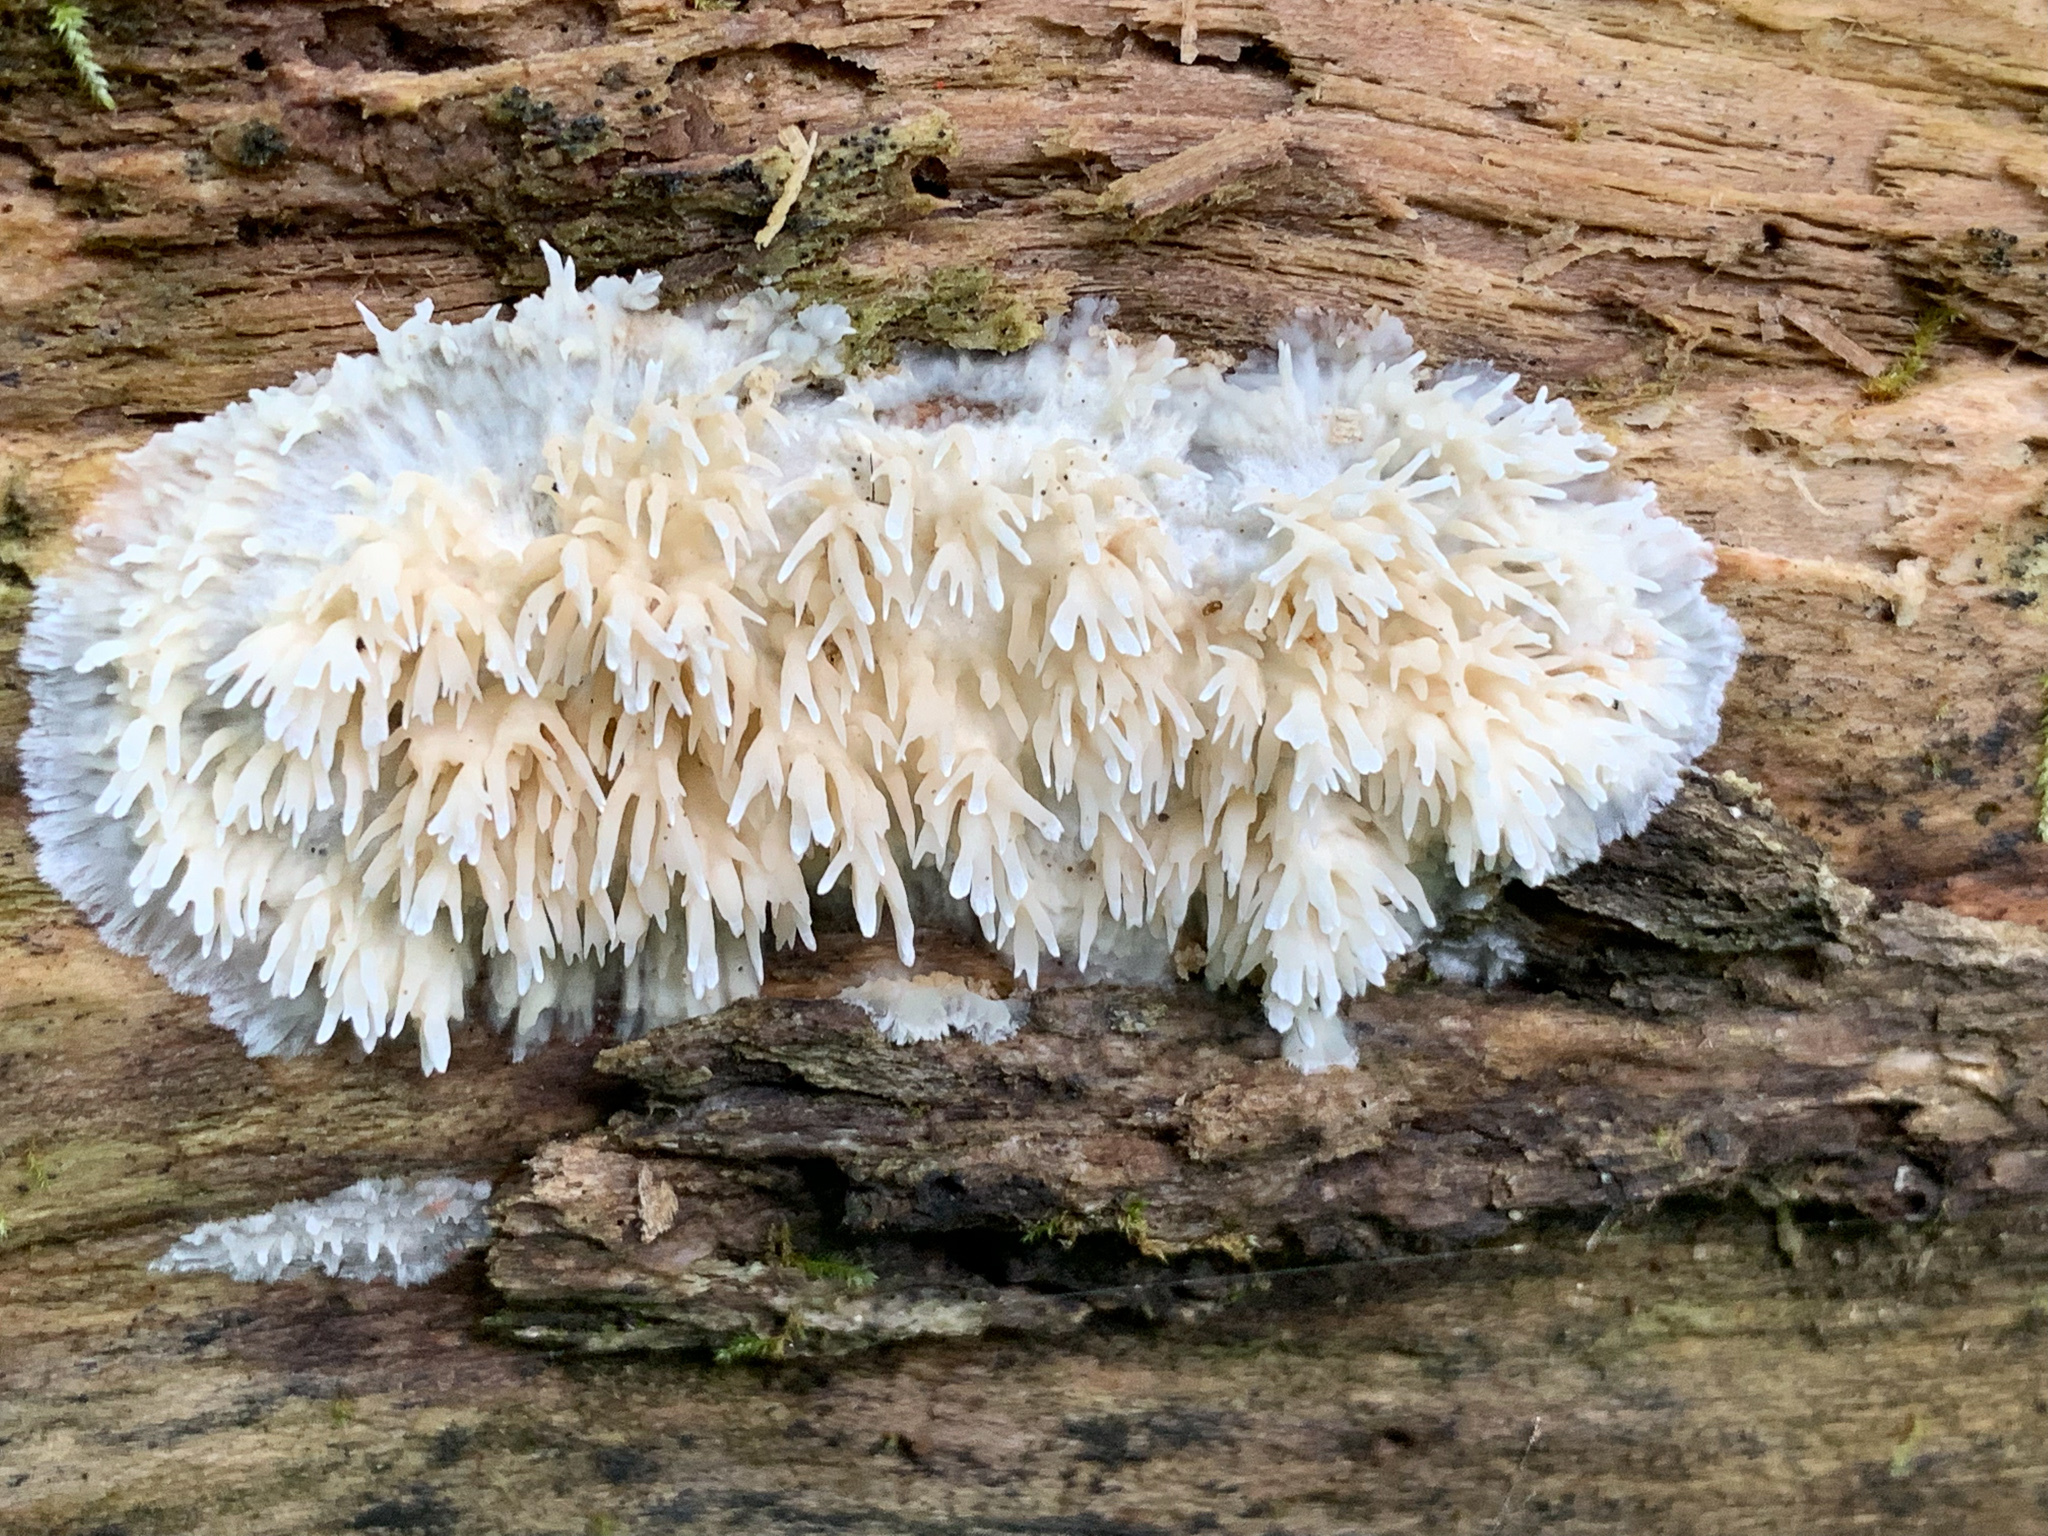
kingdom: Fungi
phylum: Basidiomycota
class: Agaricomycetes
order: Agaricales
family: Radulomycetaceae
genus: Radulomyces
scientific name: Radulomyces copelandii
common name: Asian beauty
